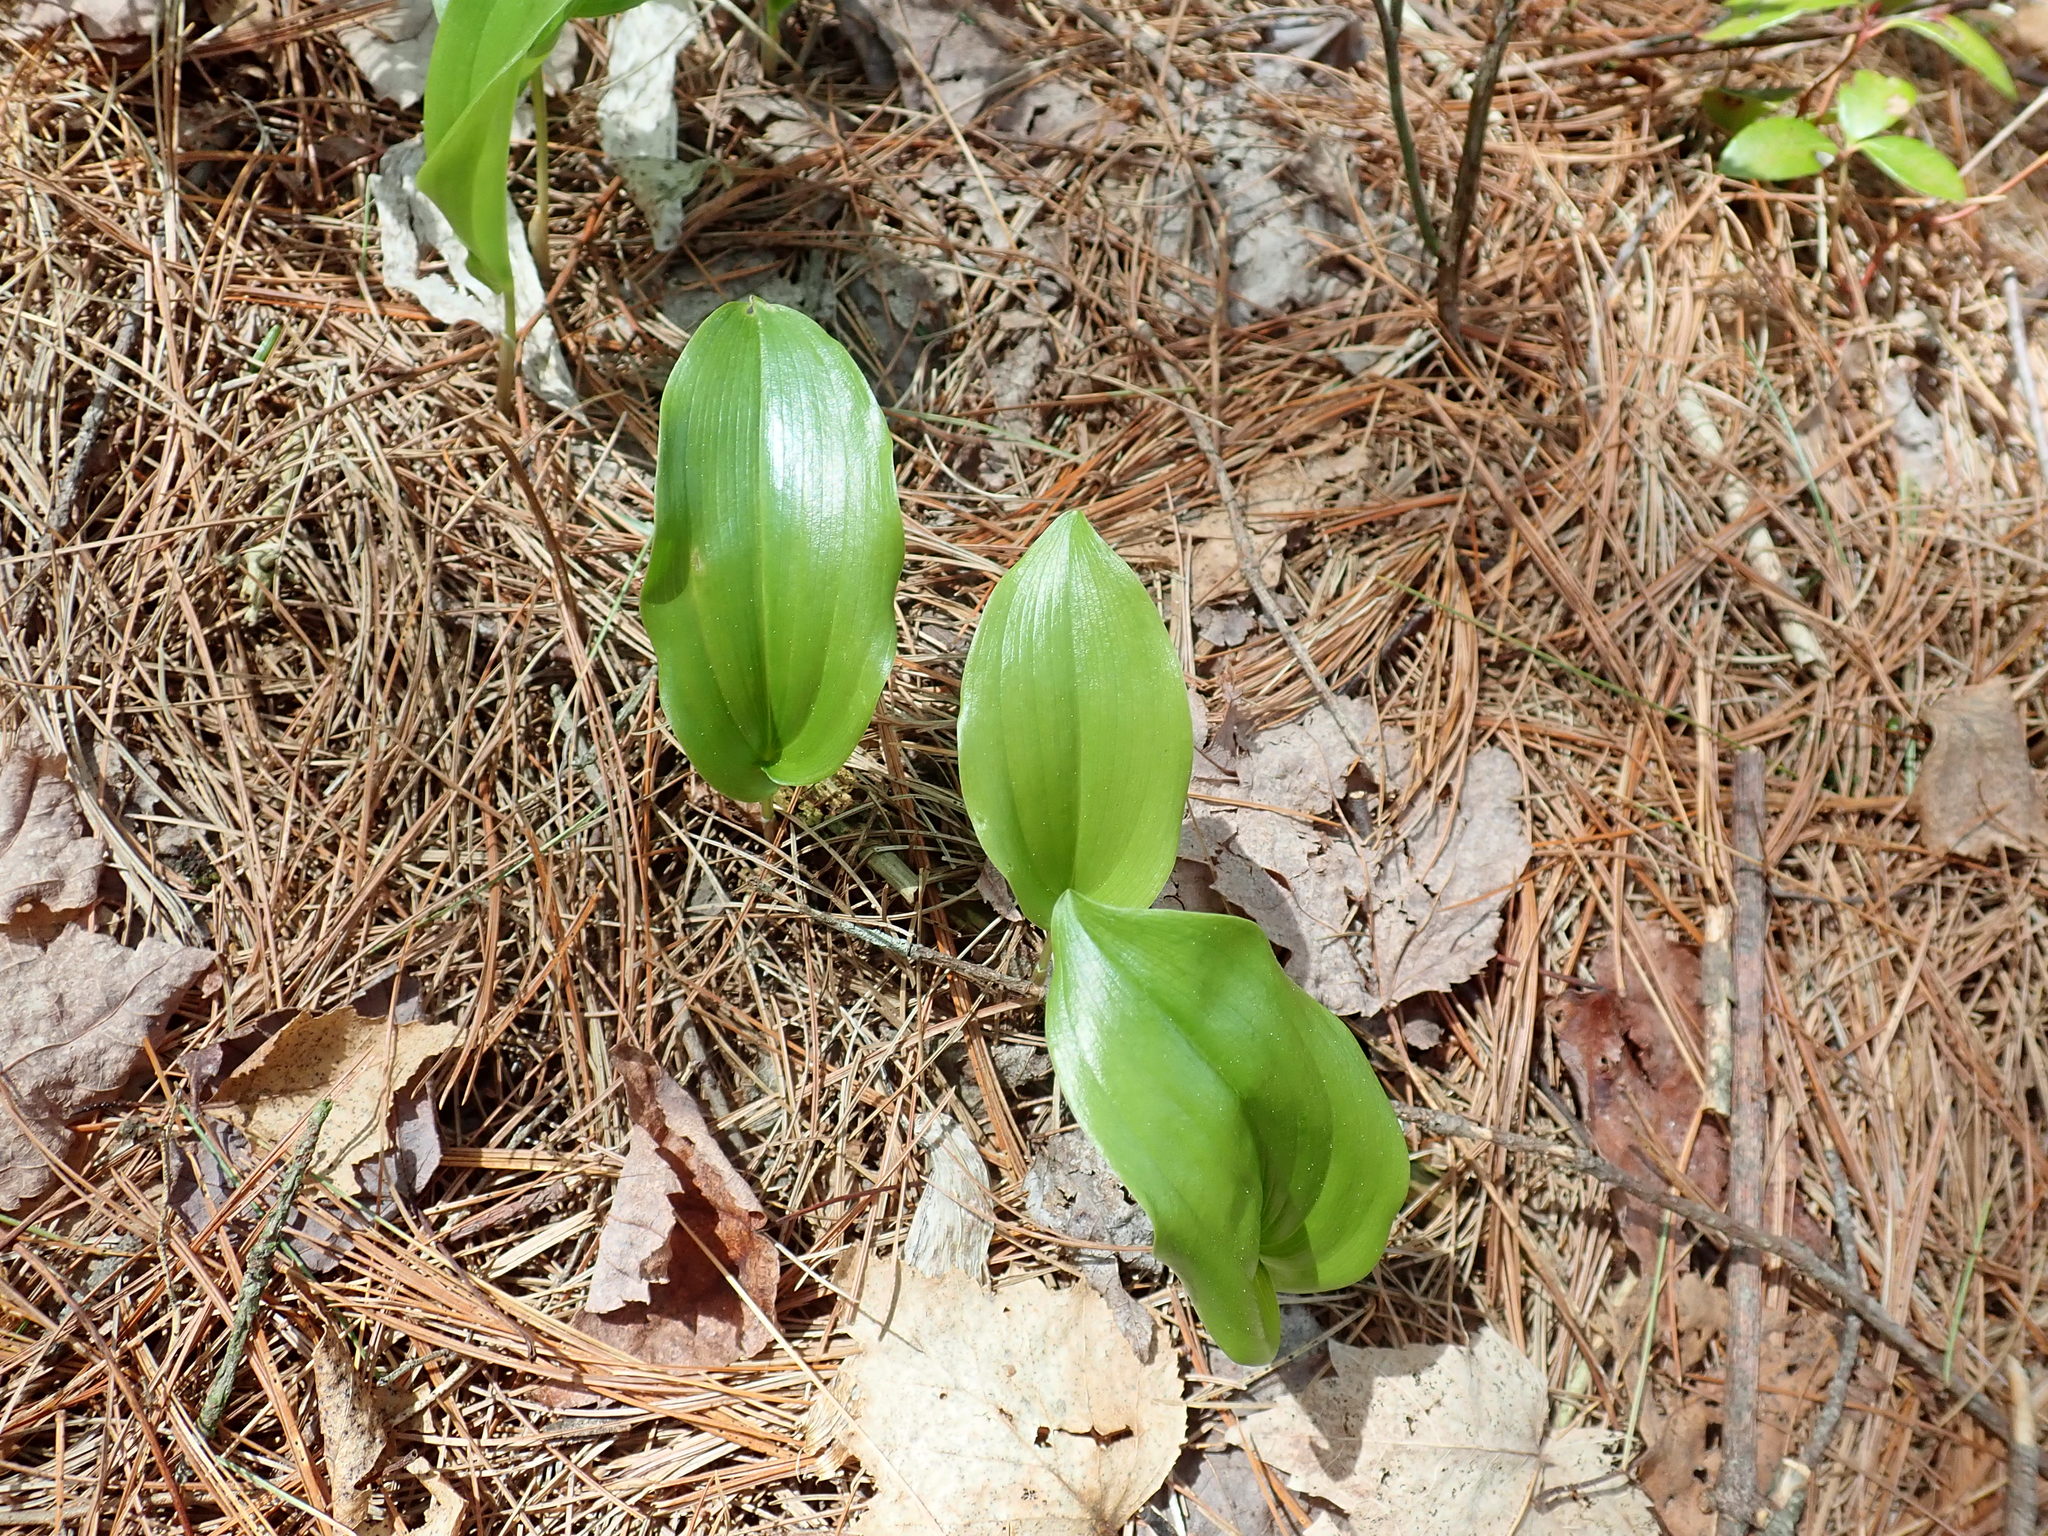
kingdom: Plantae
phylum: Tracheophyta
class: Liliopsida
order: Asparagales
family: Asparagaceae
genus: Maianthemum
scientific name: Maianthemum canadense
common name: False lily-of-the-valley
